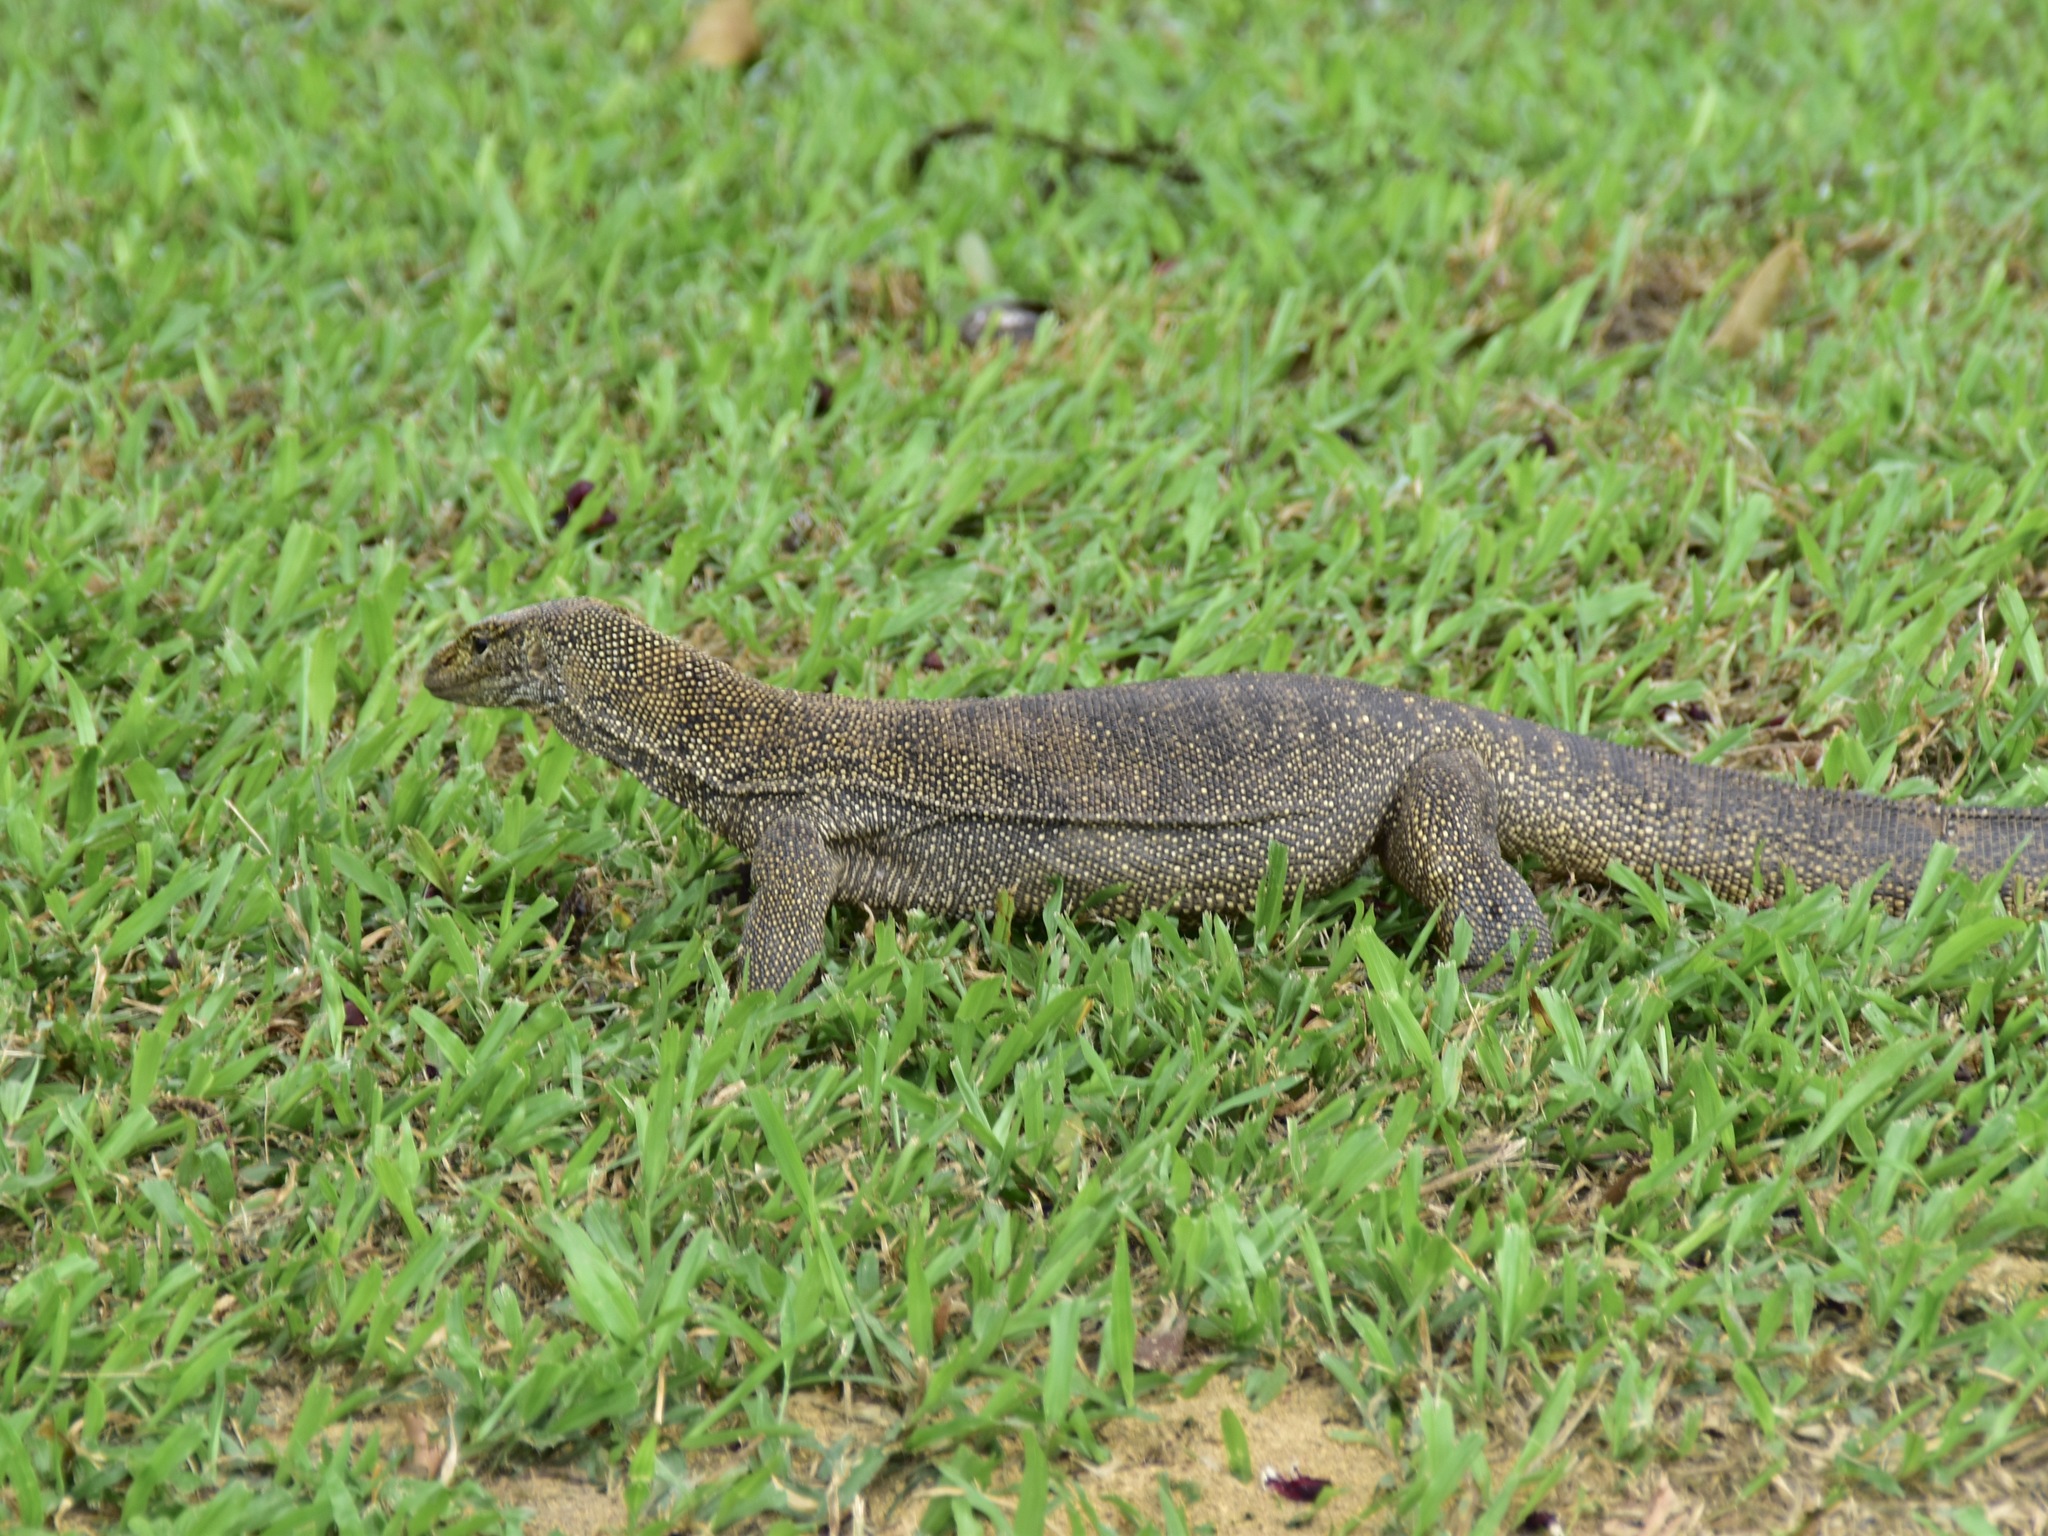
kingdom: Animalia
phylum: Chordata
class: Squamata
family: Varanidae
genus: Varanus
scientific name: Varanus nebulosus
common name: Clouded monitor
